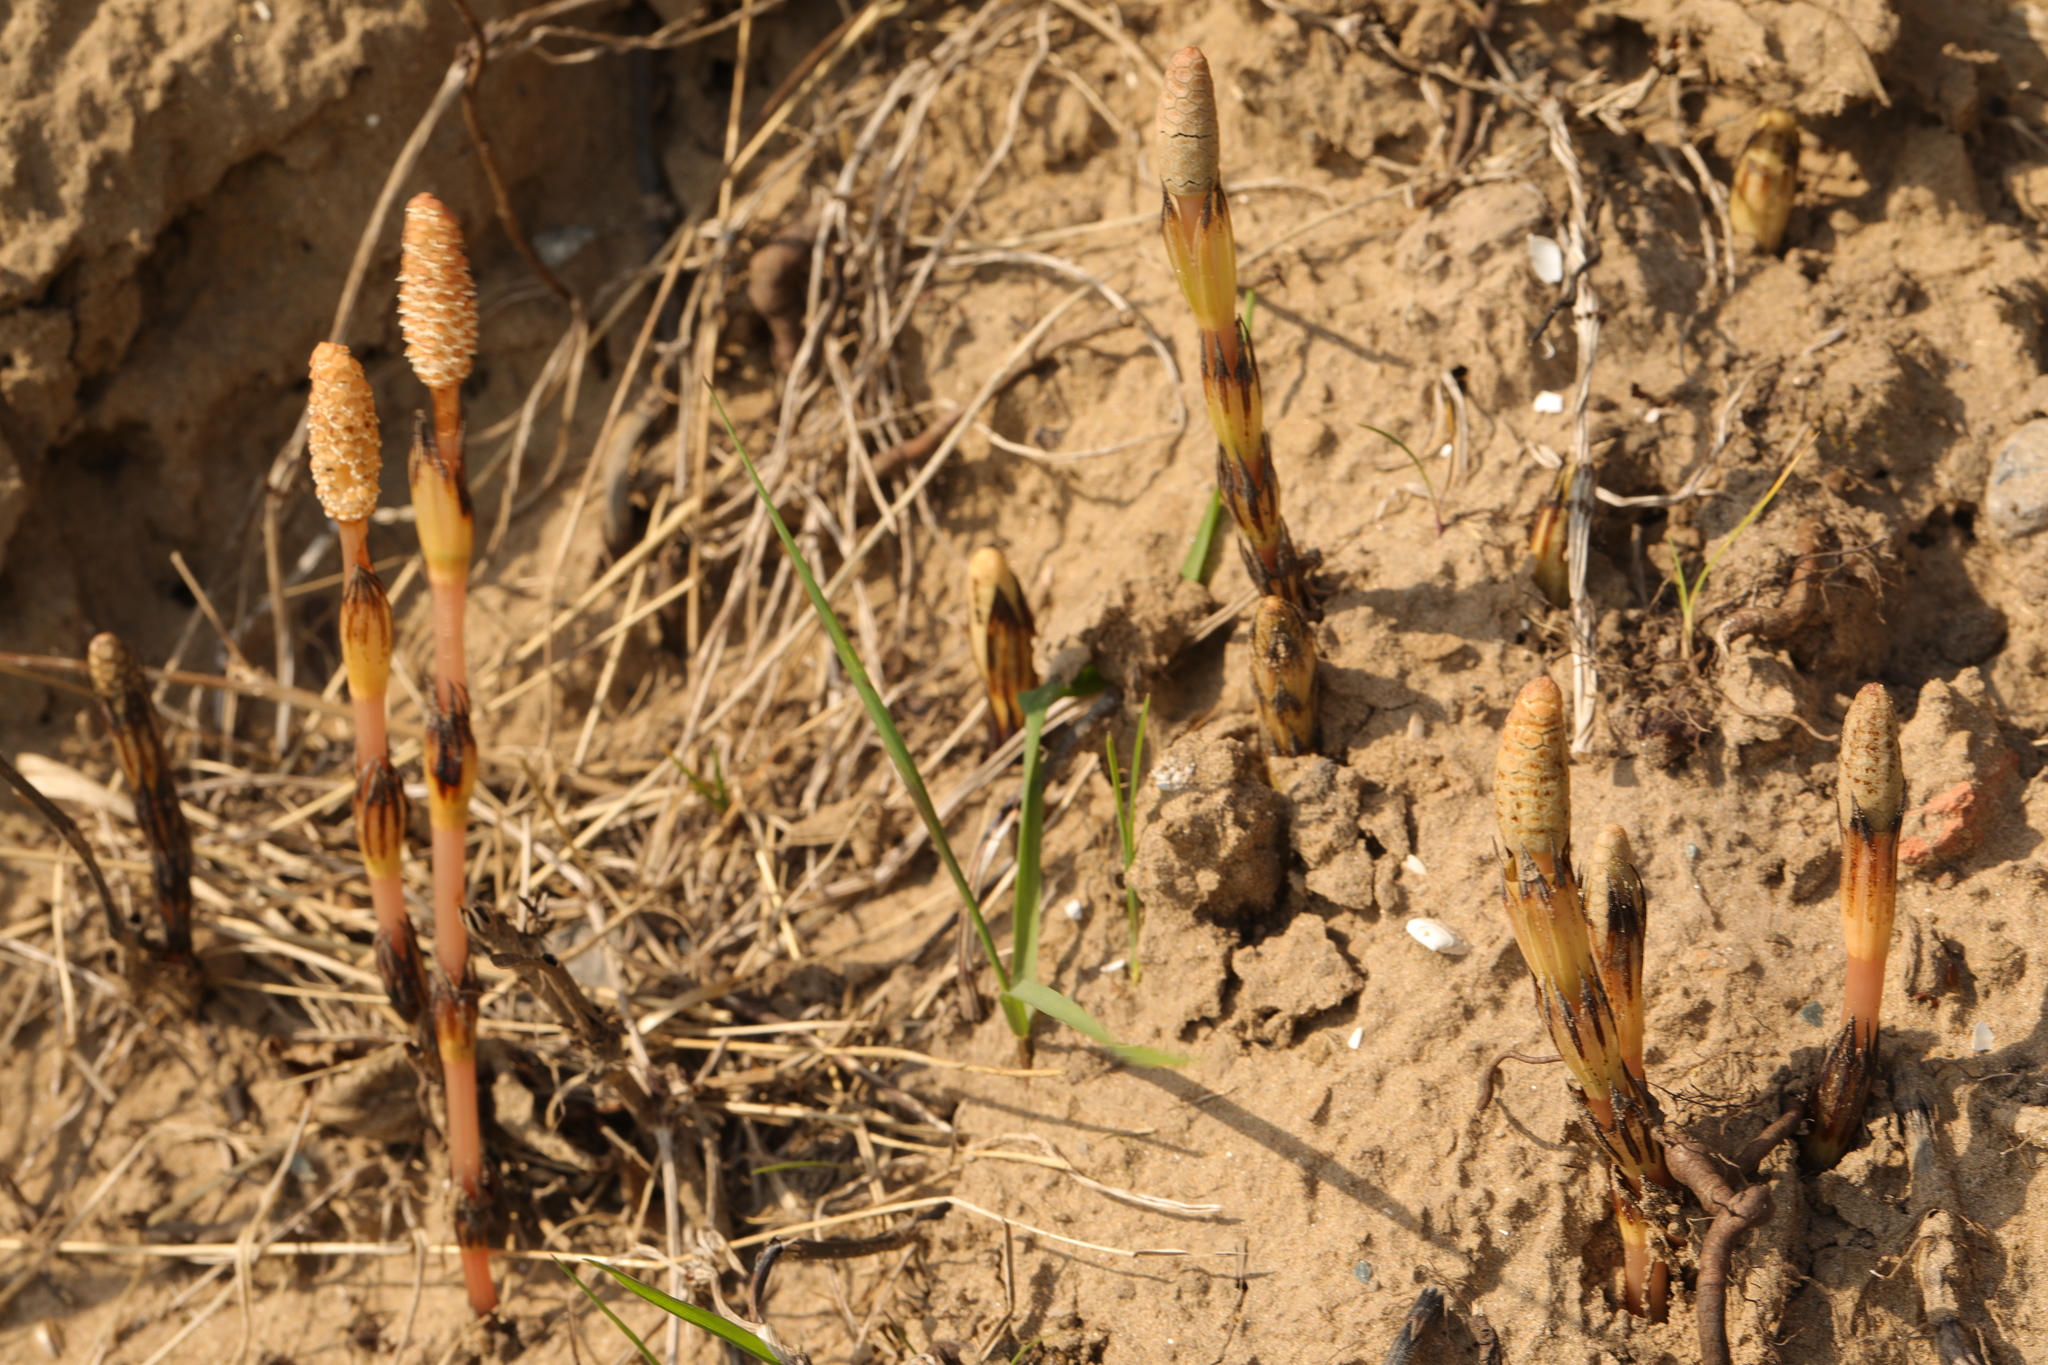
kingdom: Plantae
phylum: Tracheophyta
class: Polypodiopsida
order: Equisetales
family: Equisetaceae
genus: Equisetum
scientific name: Equisetum arvense
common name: Field horsetail
